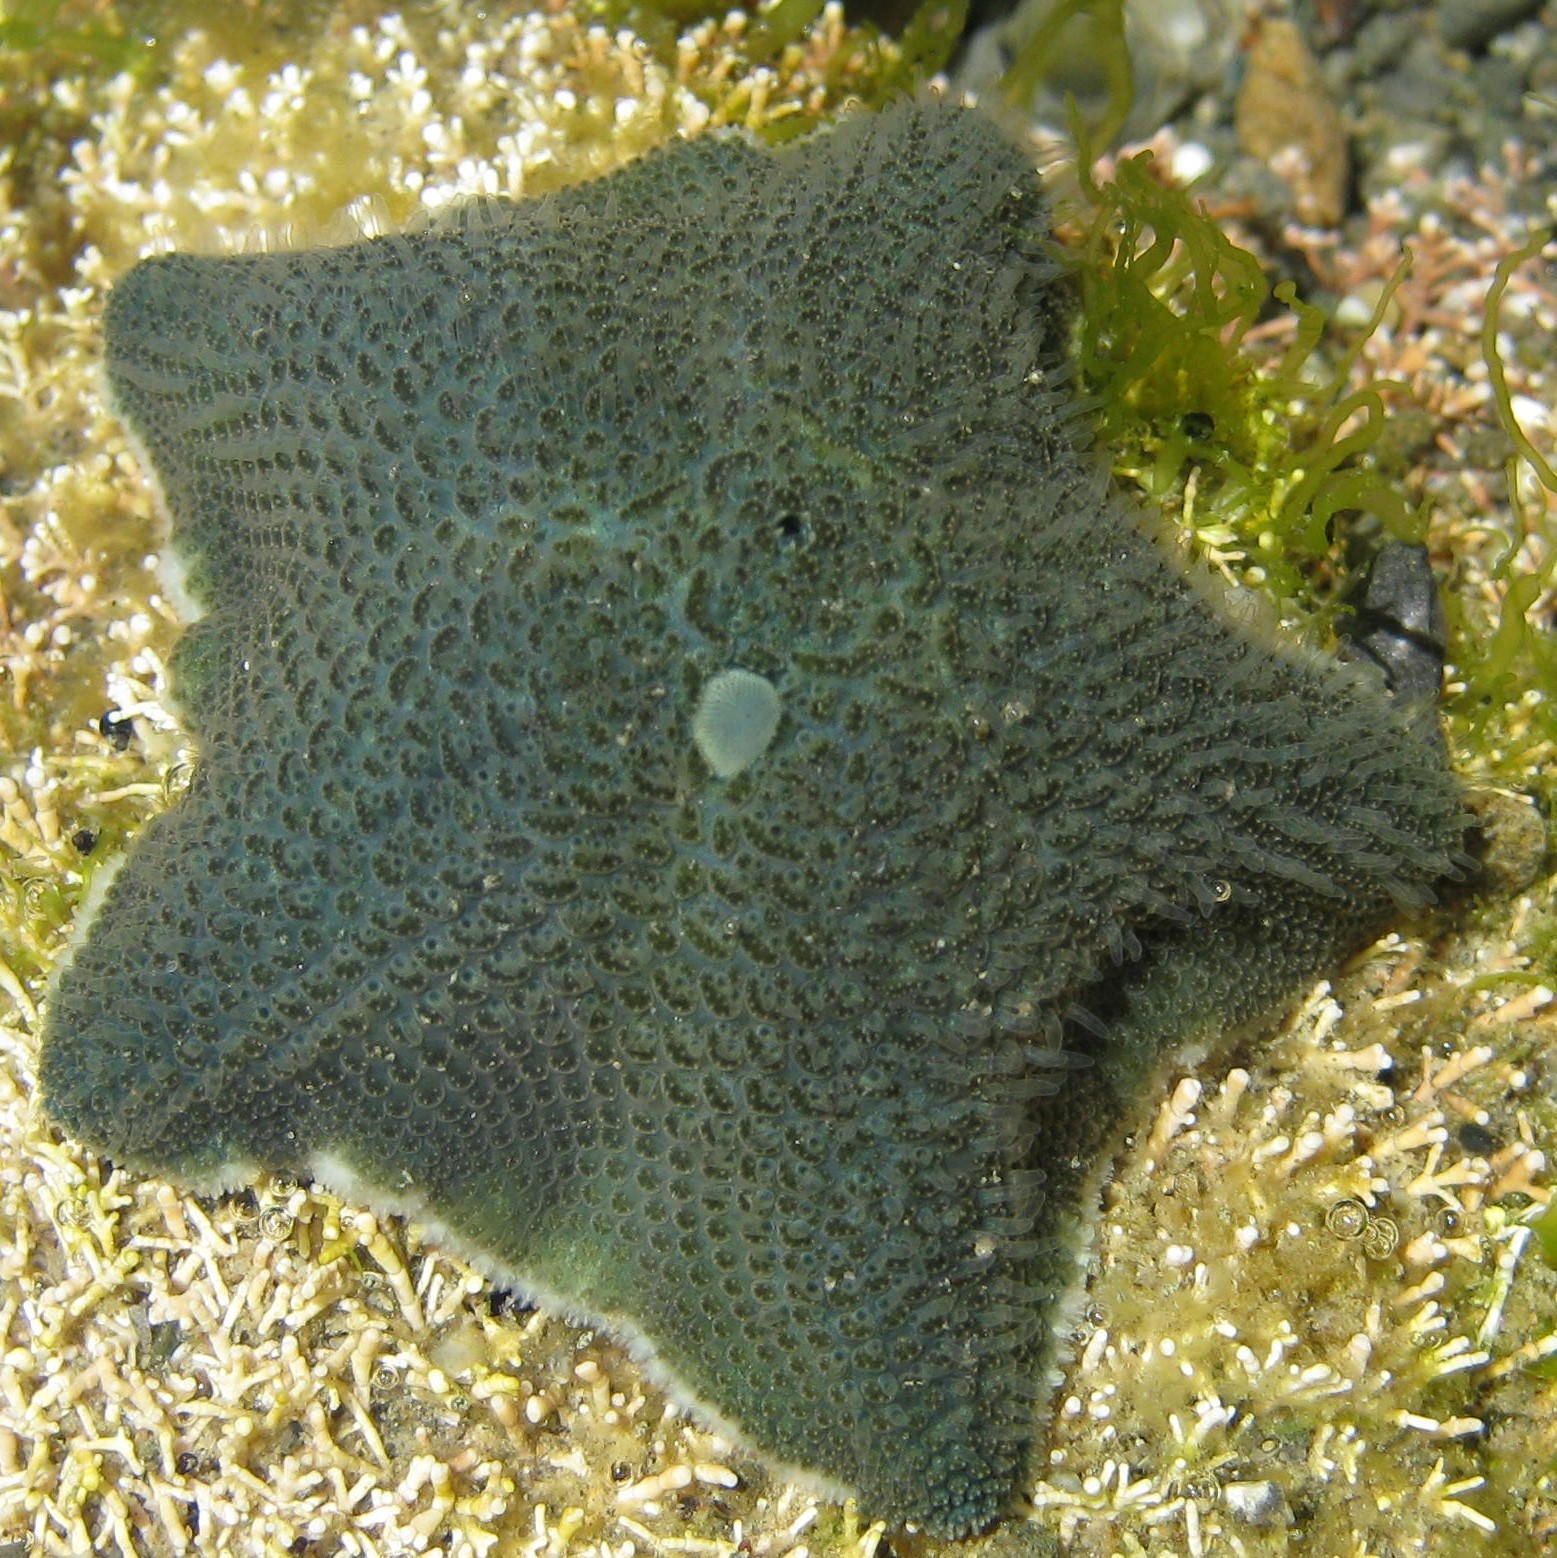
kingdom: Animalia
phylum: Echinodermata
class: Asteroidea
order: Valvatida
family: Asterinidae
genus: Patiriella
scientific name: Patiriella regularis
